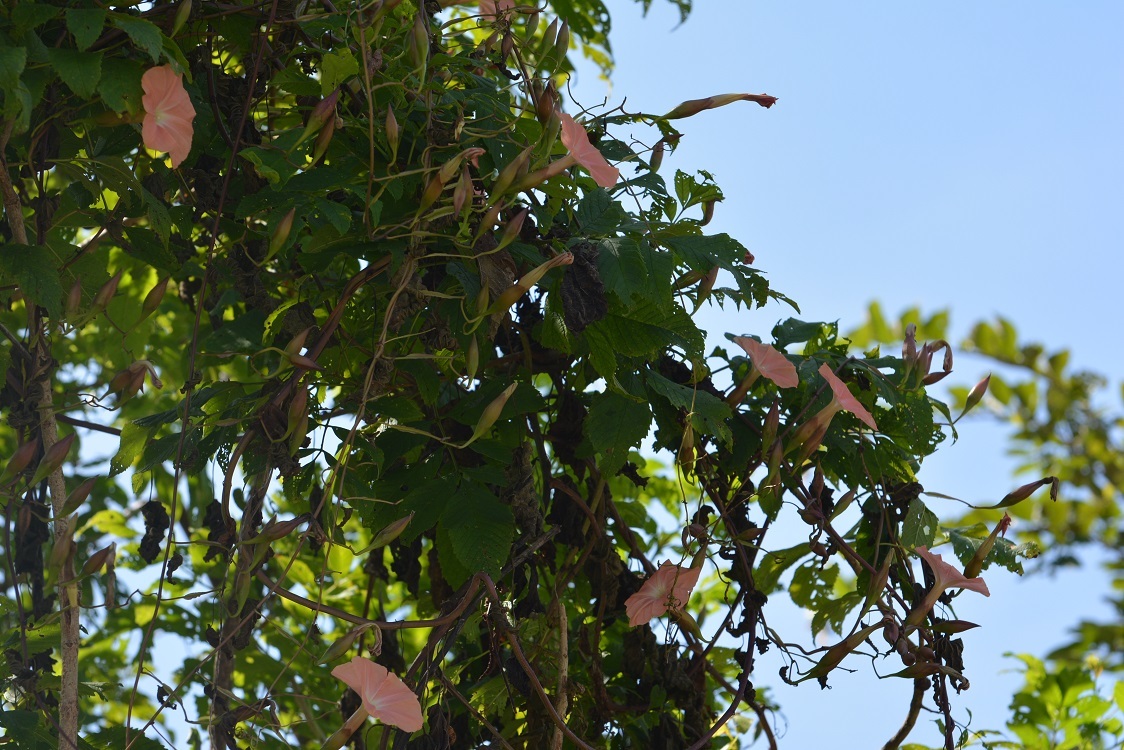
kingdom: Plantae
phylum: Tracheophyta
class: Magnoliopsida
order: Solanales
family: Convolvulaceae
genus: Operculina
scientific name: Operculina pteripes
